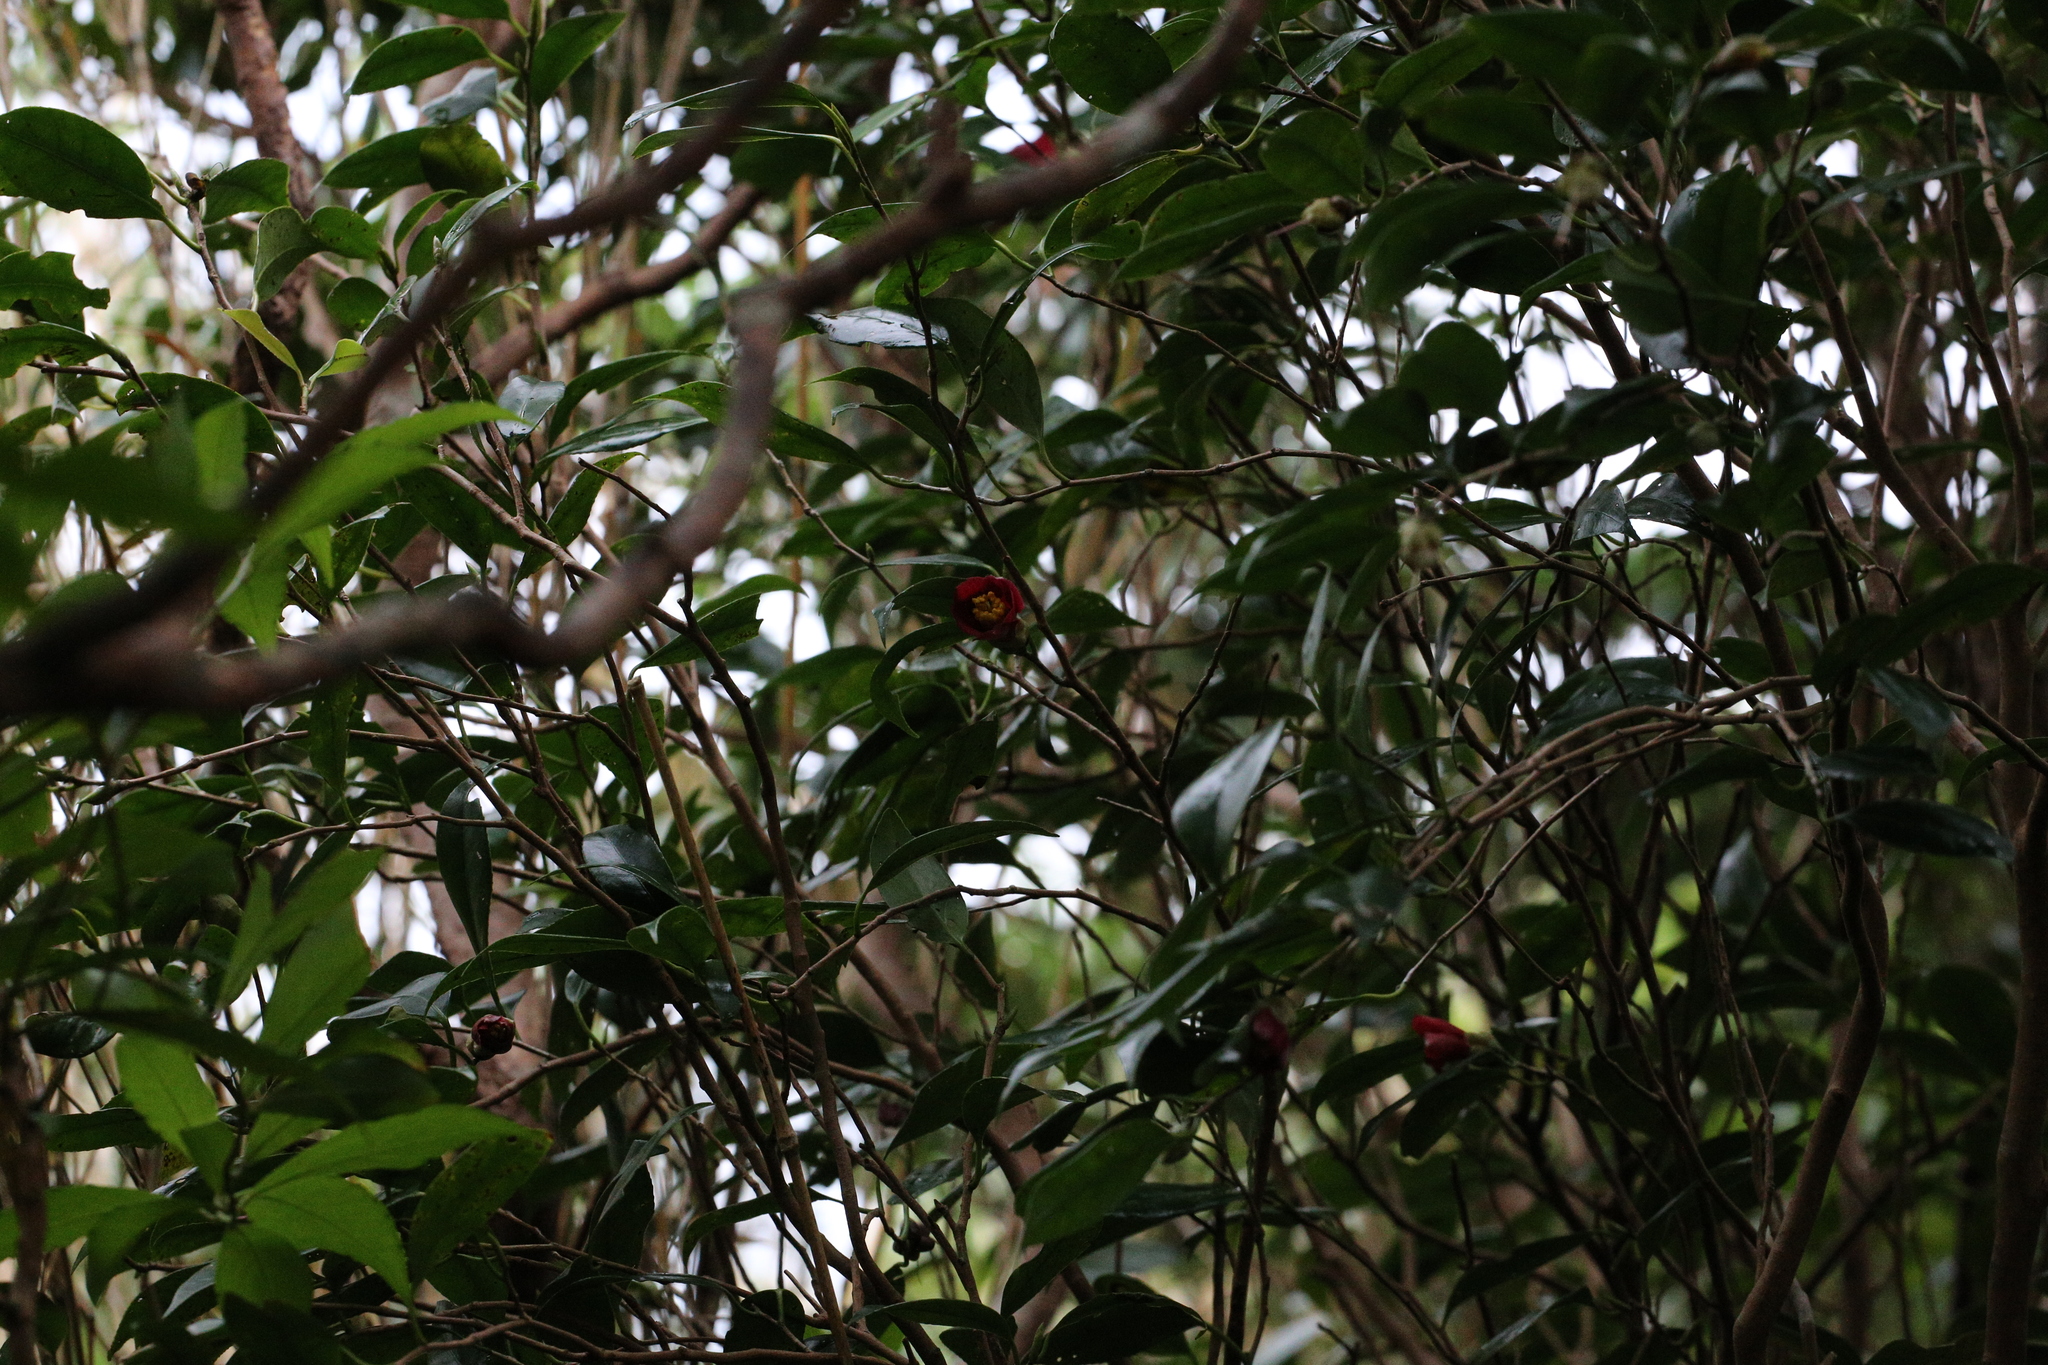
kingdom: Plantae
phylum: Tracheophyta
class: Magnoliopsida
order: Ericales
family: Theaceae
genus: Camellia
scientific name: Camellia japonica
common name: Camellia
